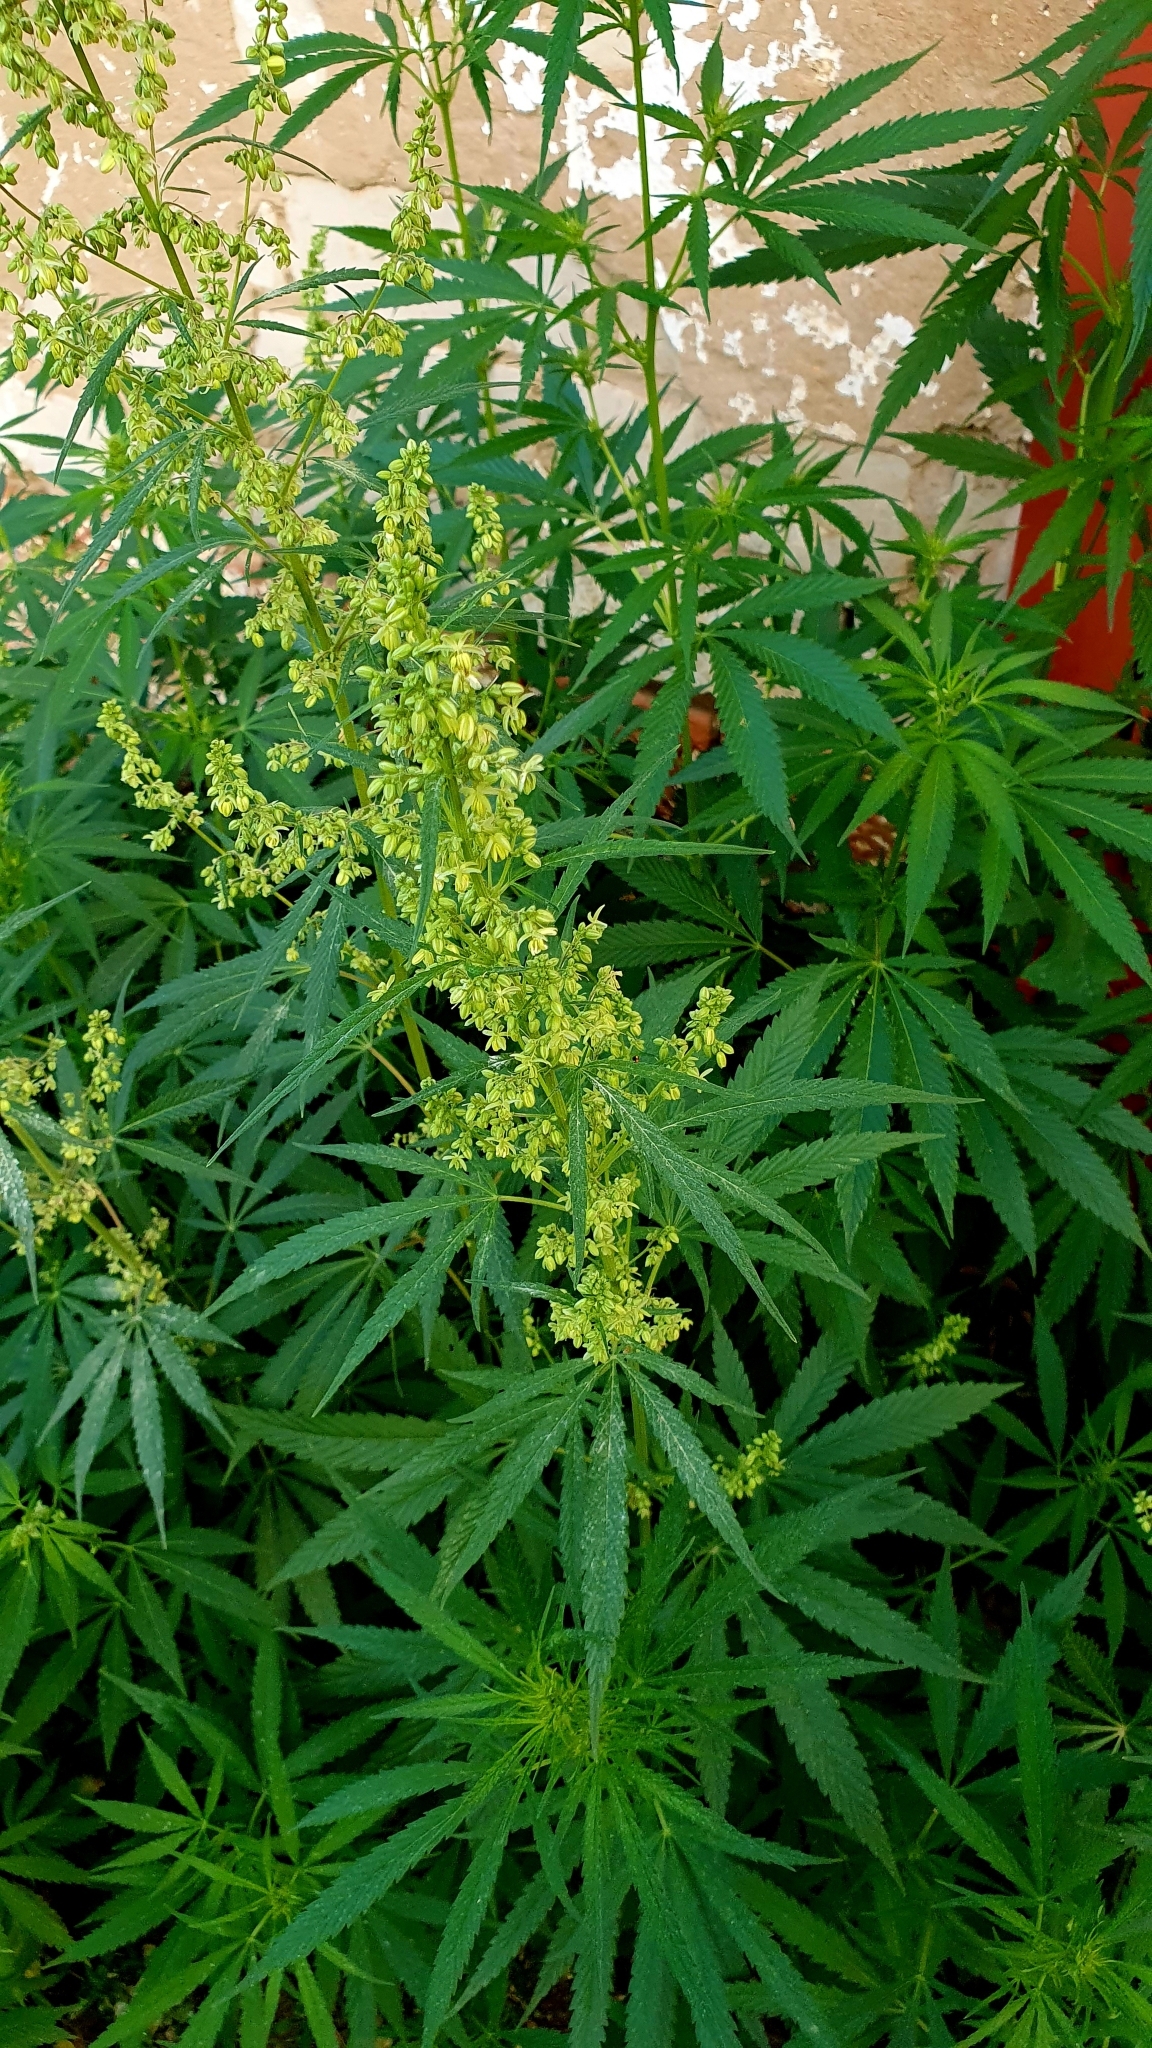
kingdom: Plantae
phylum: Tracheophyta
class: Magnoliopsida
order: Rosales
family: Cannabaceae
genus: Cannabis
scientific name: Cannabis sativa
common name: Hemp
